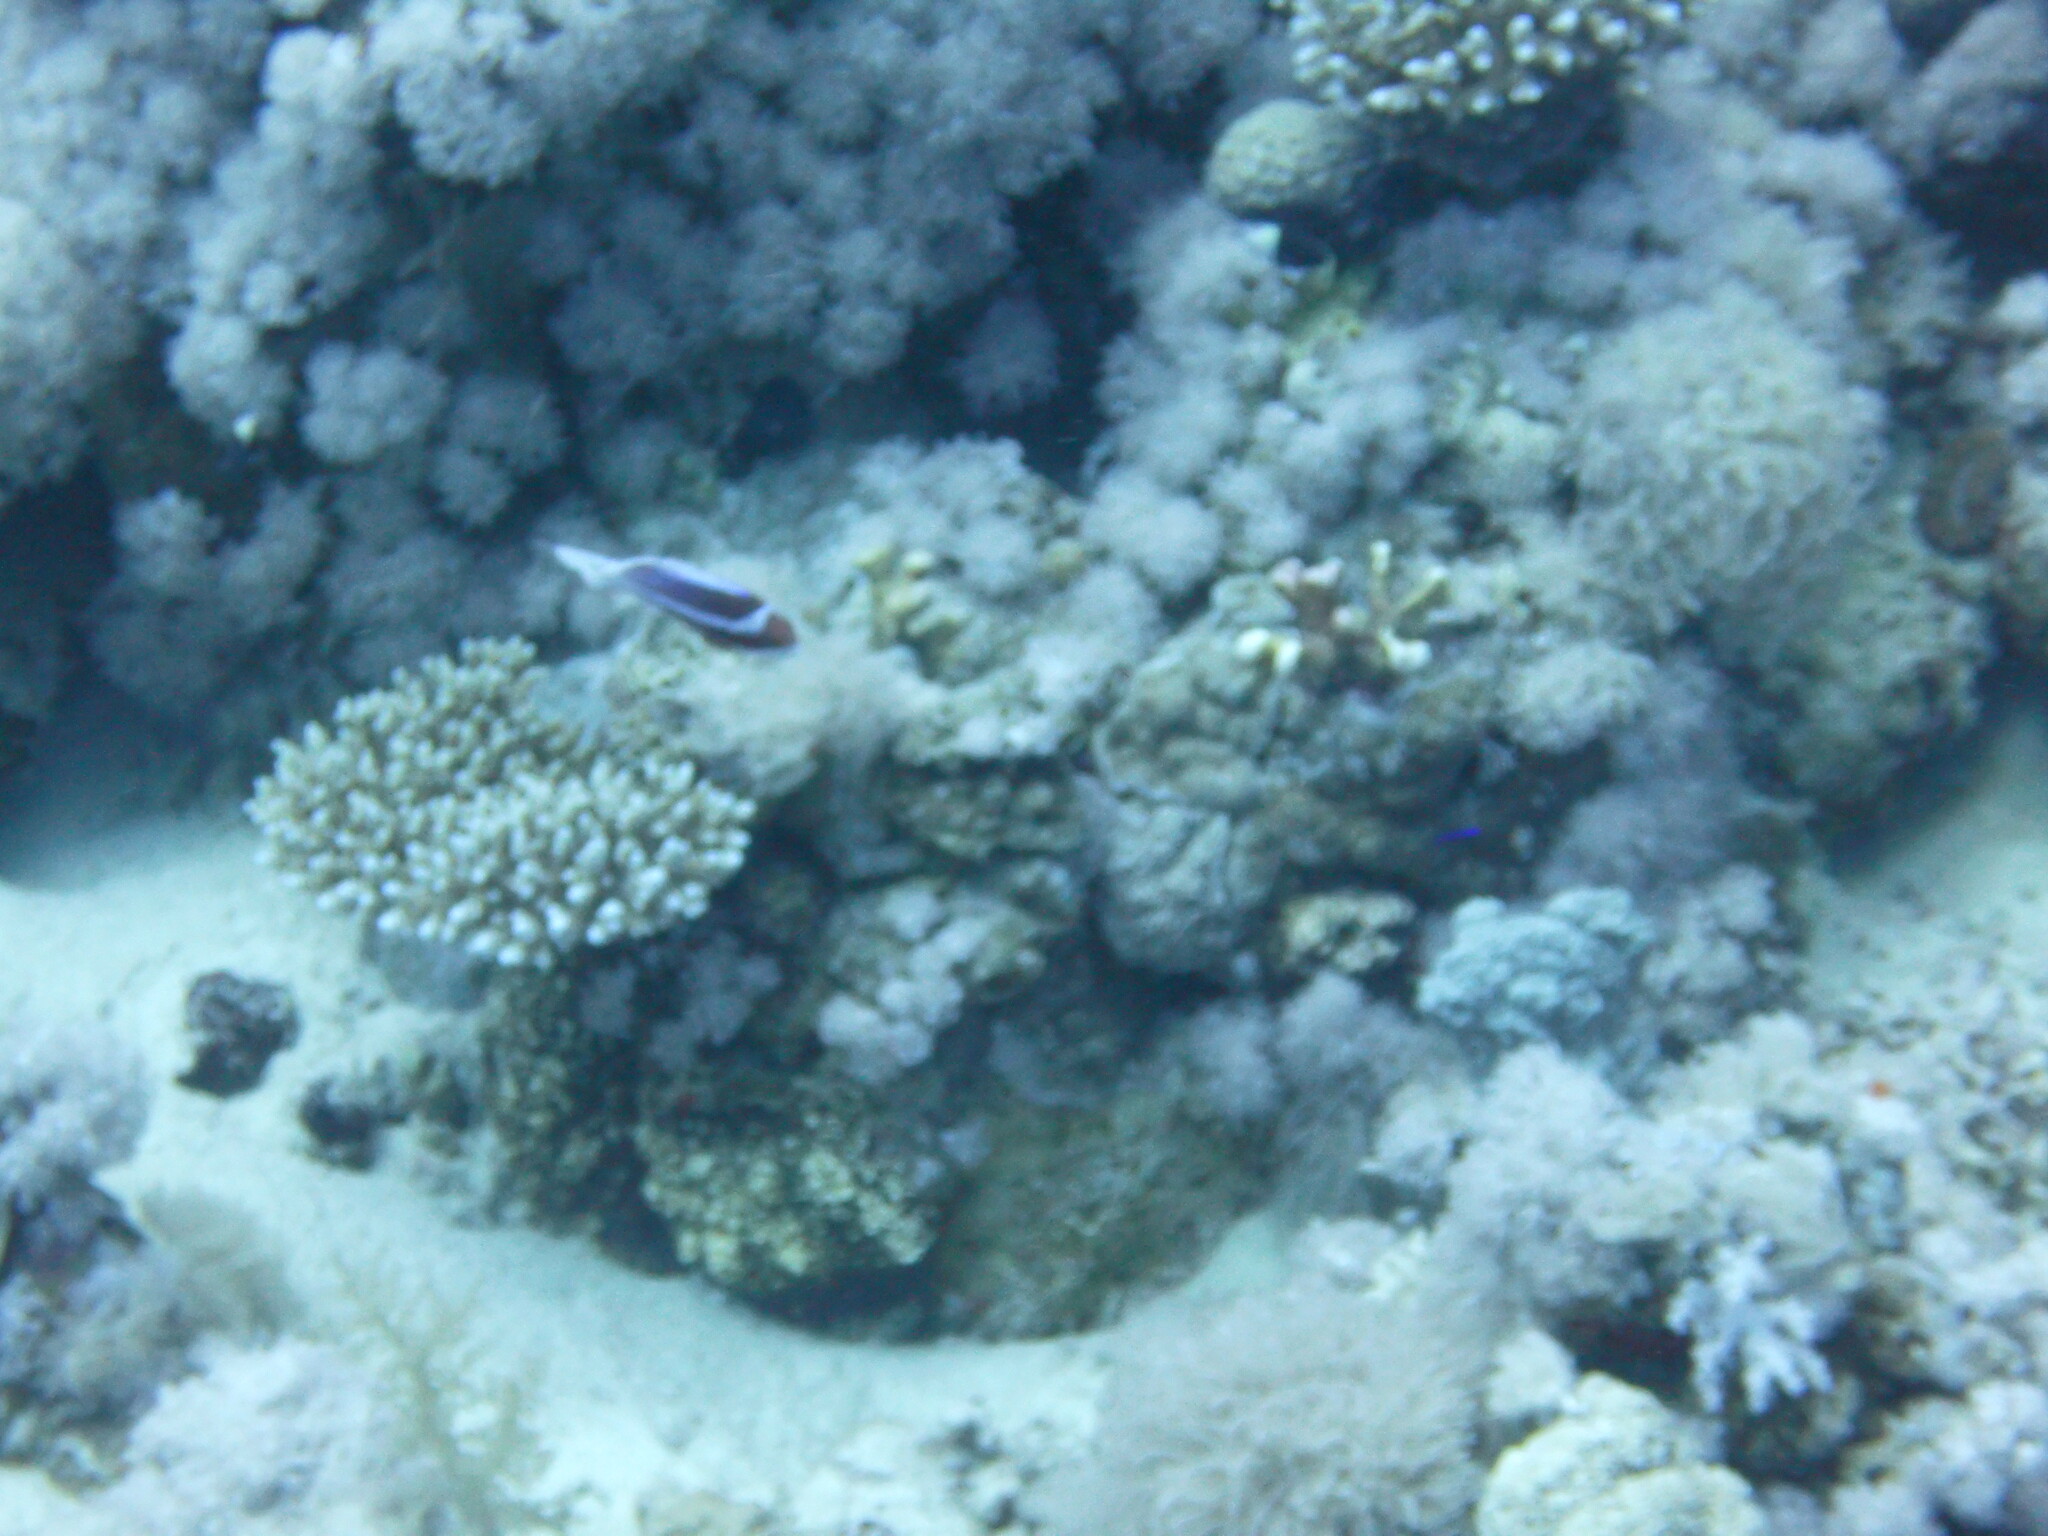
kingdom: Animalia
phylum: Chordata
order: Perciformes
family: Serranidae
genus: Pseudanthias
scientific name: Pseudanthias taeniatus
